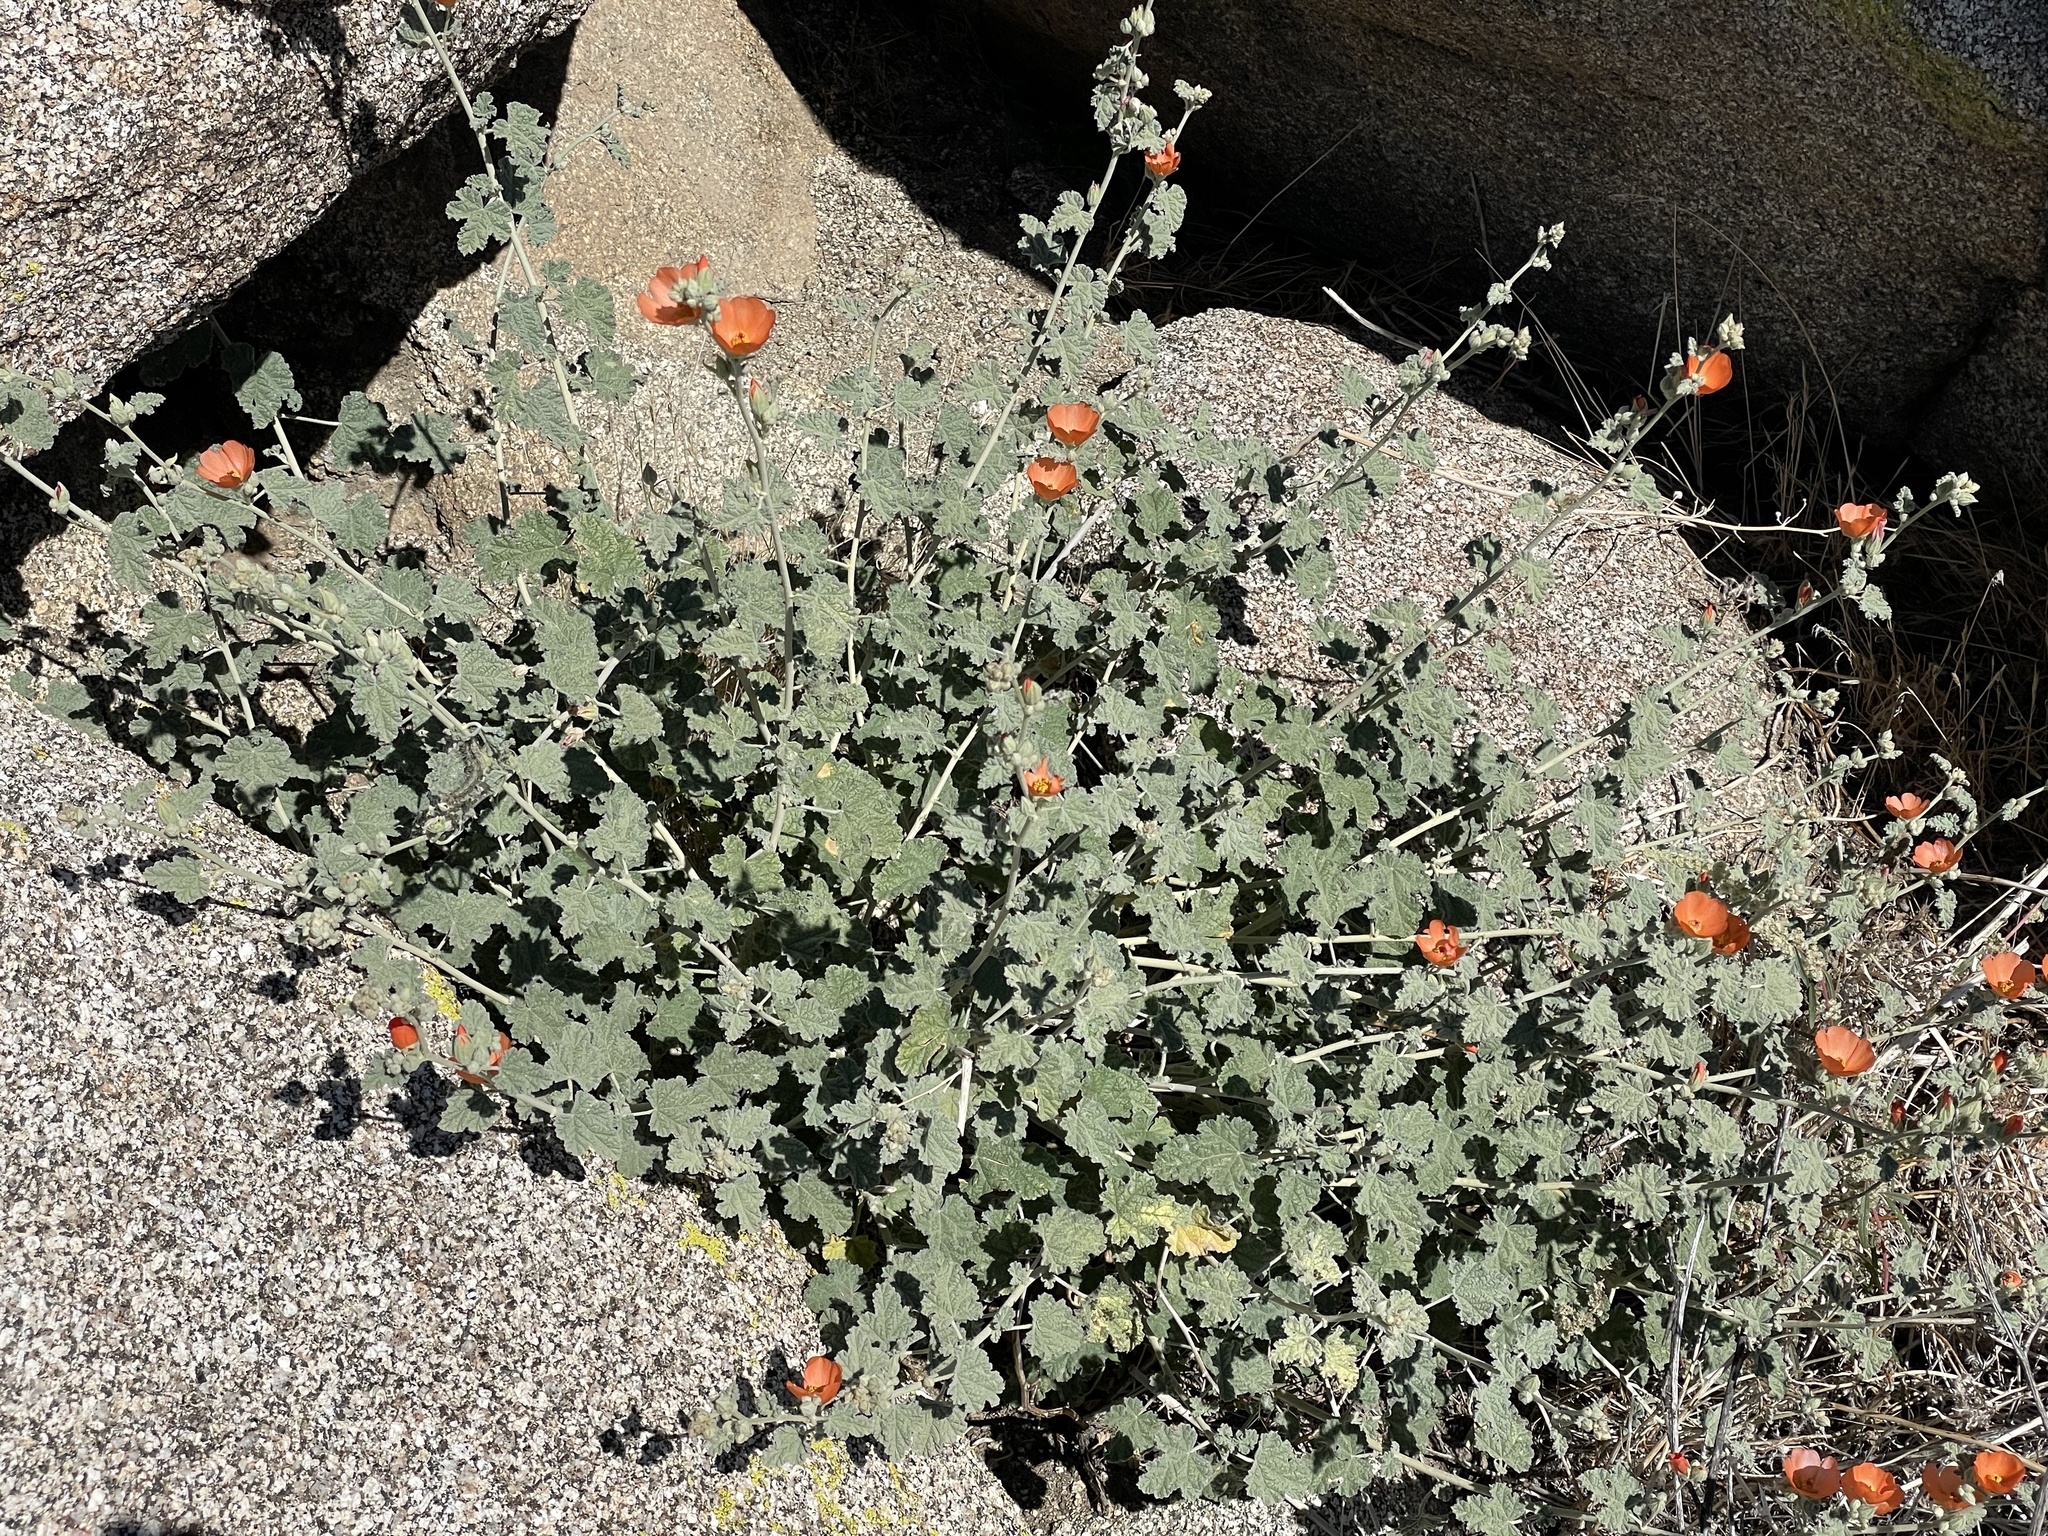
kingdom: Plantae
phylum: Tracheophyta
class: Magnoliopsida
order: Malvales
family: Malvaceae
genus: Sphaeralcea
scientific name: Sphaeralcea ambigua
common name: Apricot globe-mallow
